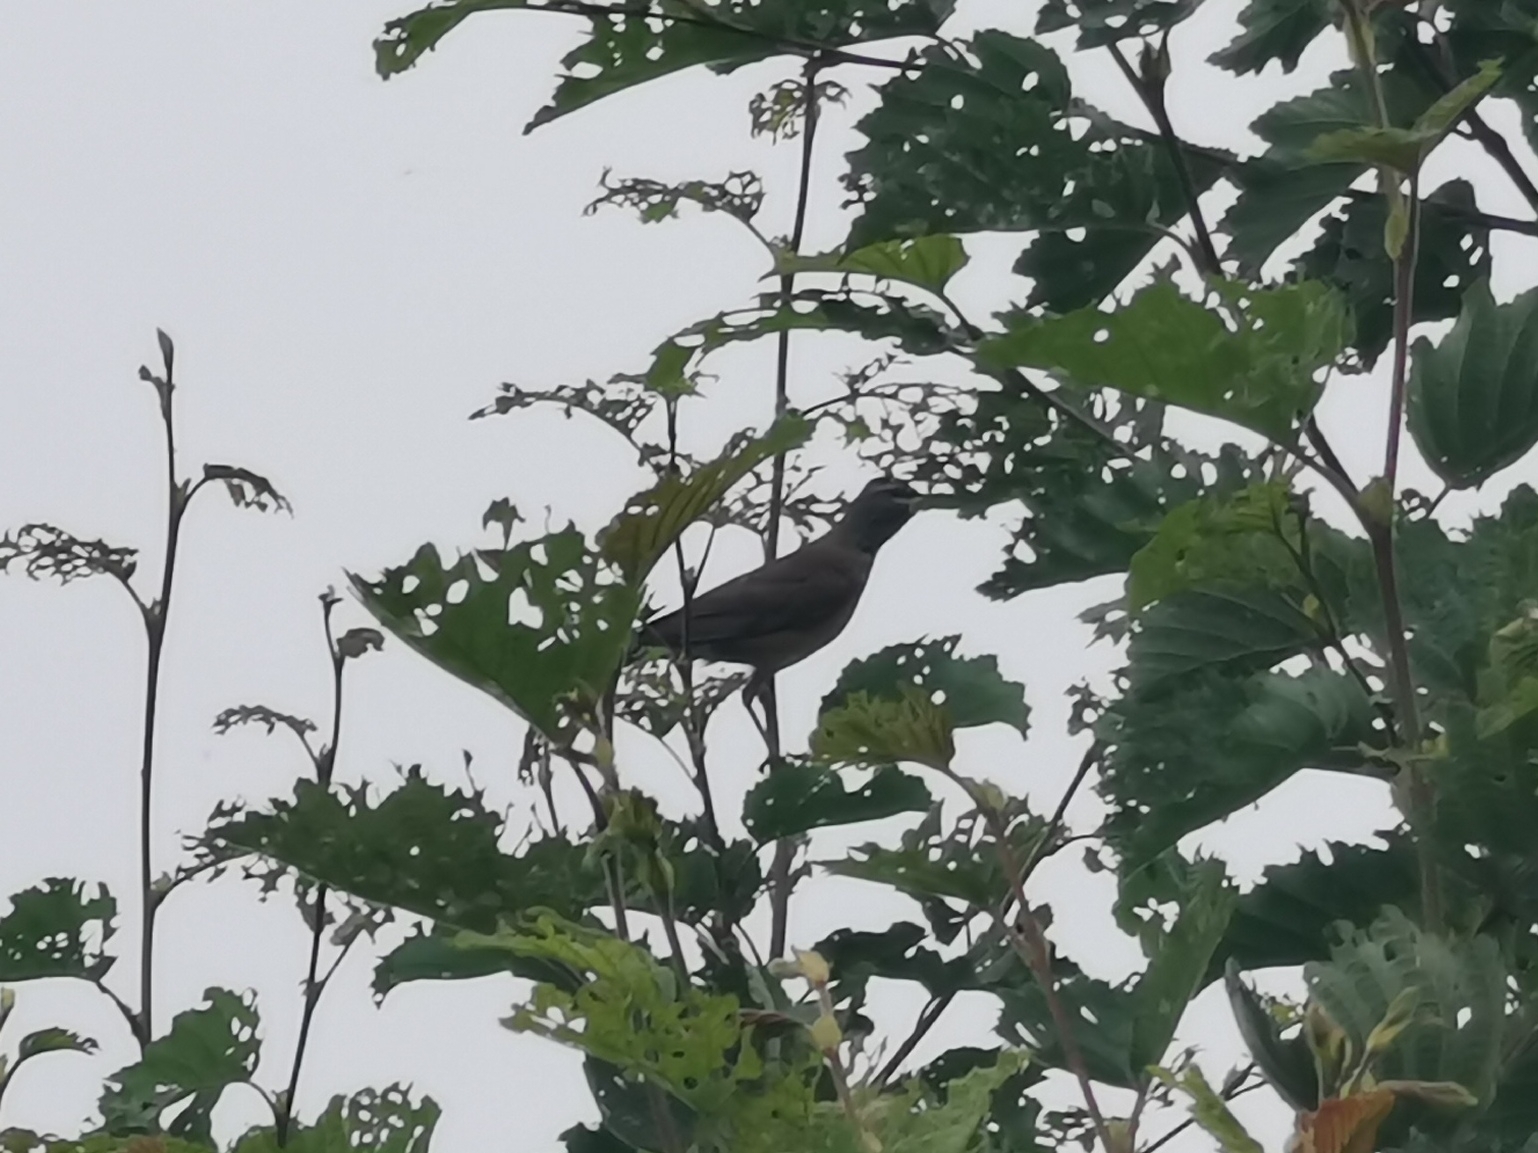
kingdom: Animalia
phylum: Chordata
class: Aves
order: Passeriformes
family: Turdidae
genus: Turdus
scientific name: Turdus obscurus
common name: Eyebrowed thrush
